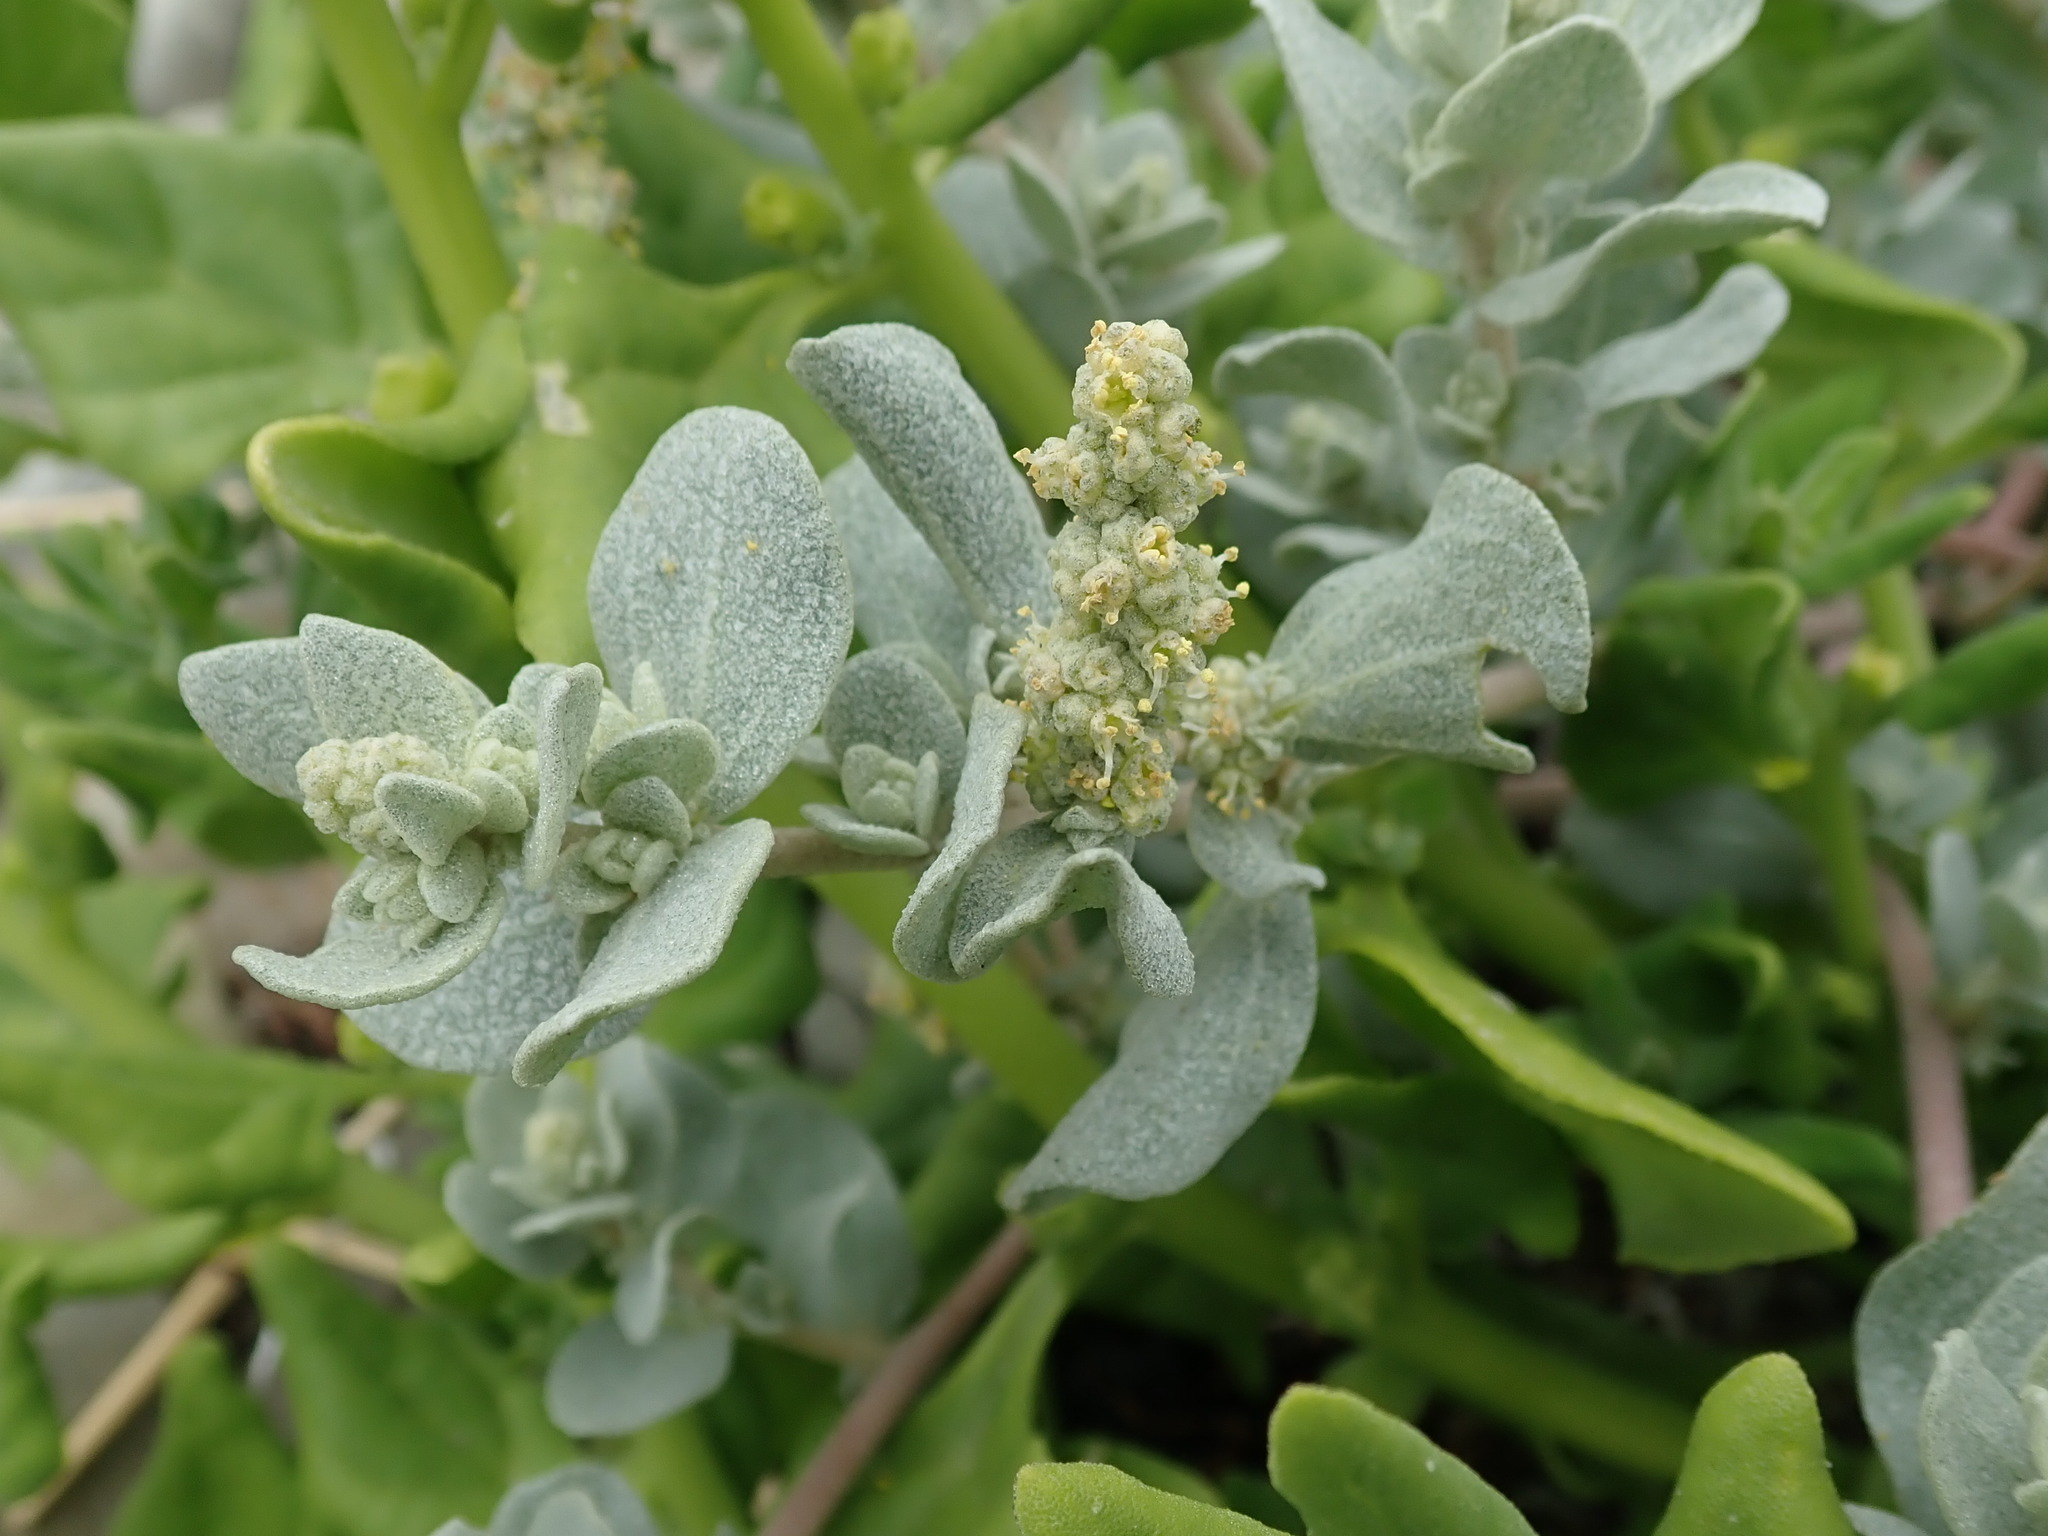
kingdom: Plantae
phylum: Tracheophyta
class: Magnoliopsida
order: Caryophyllales
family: Amaranthaceae
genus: Atriplex
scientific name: Atriplex leucophylla
